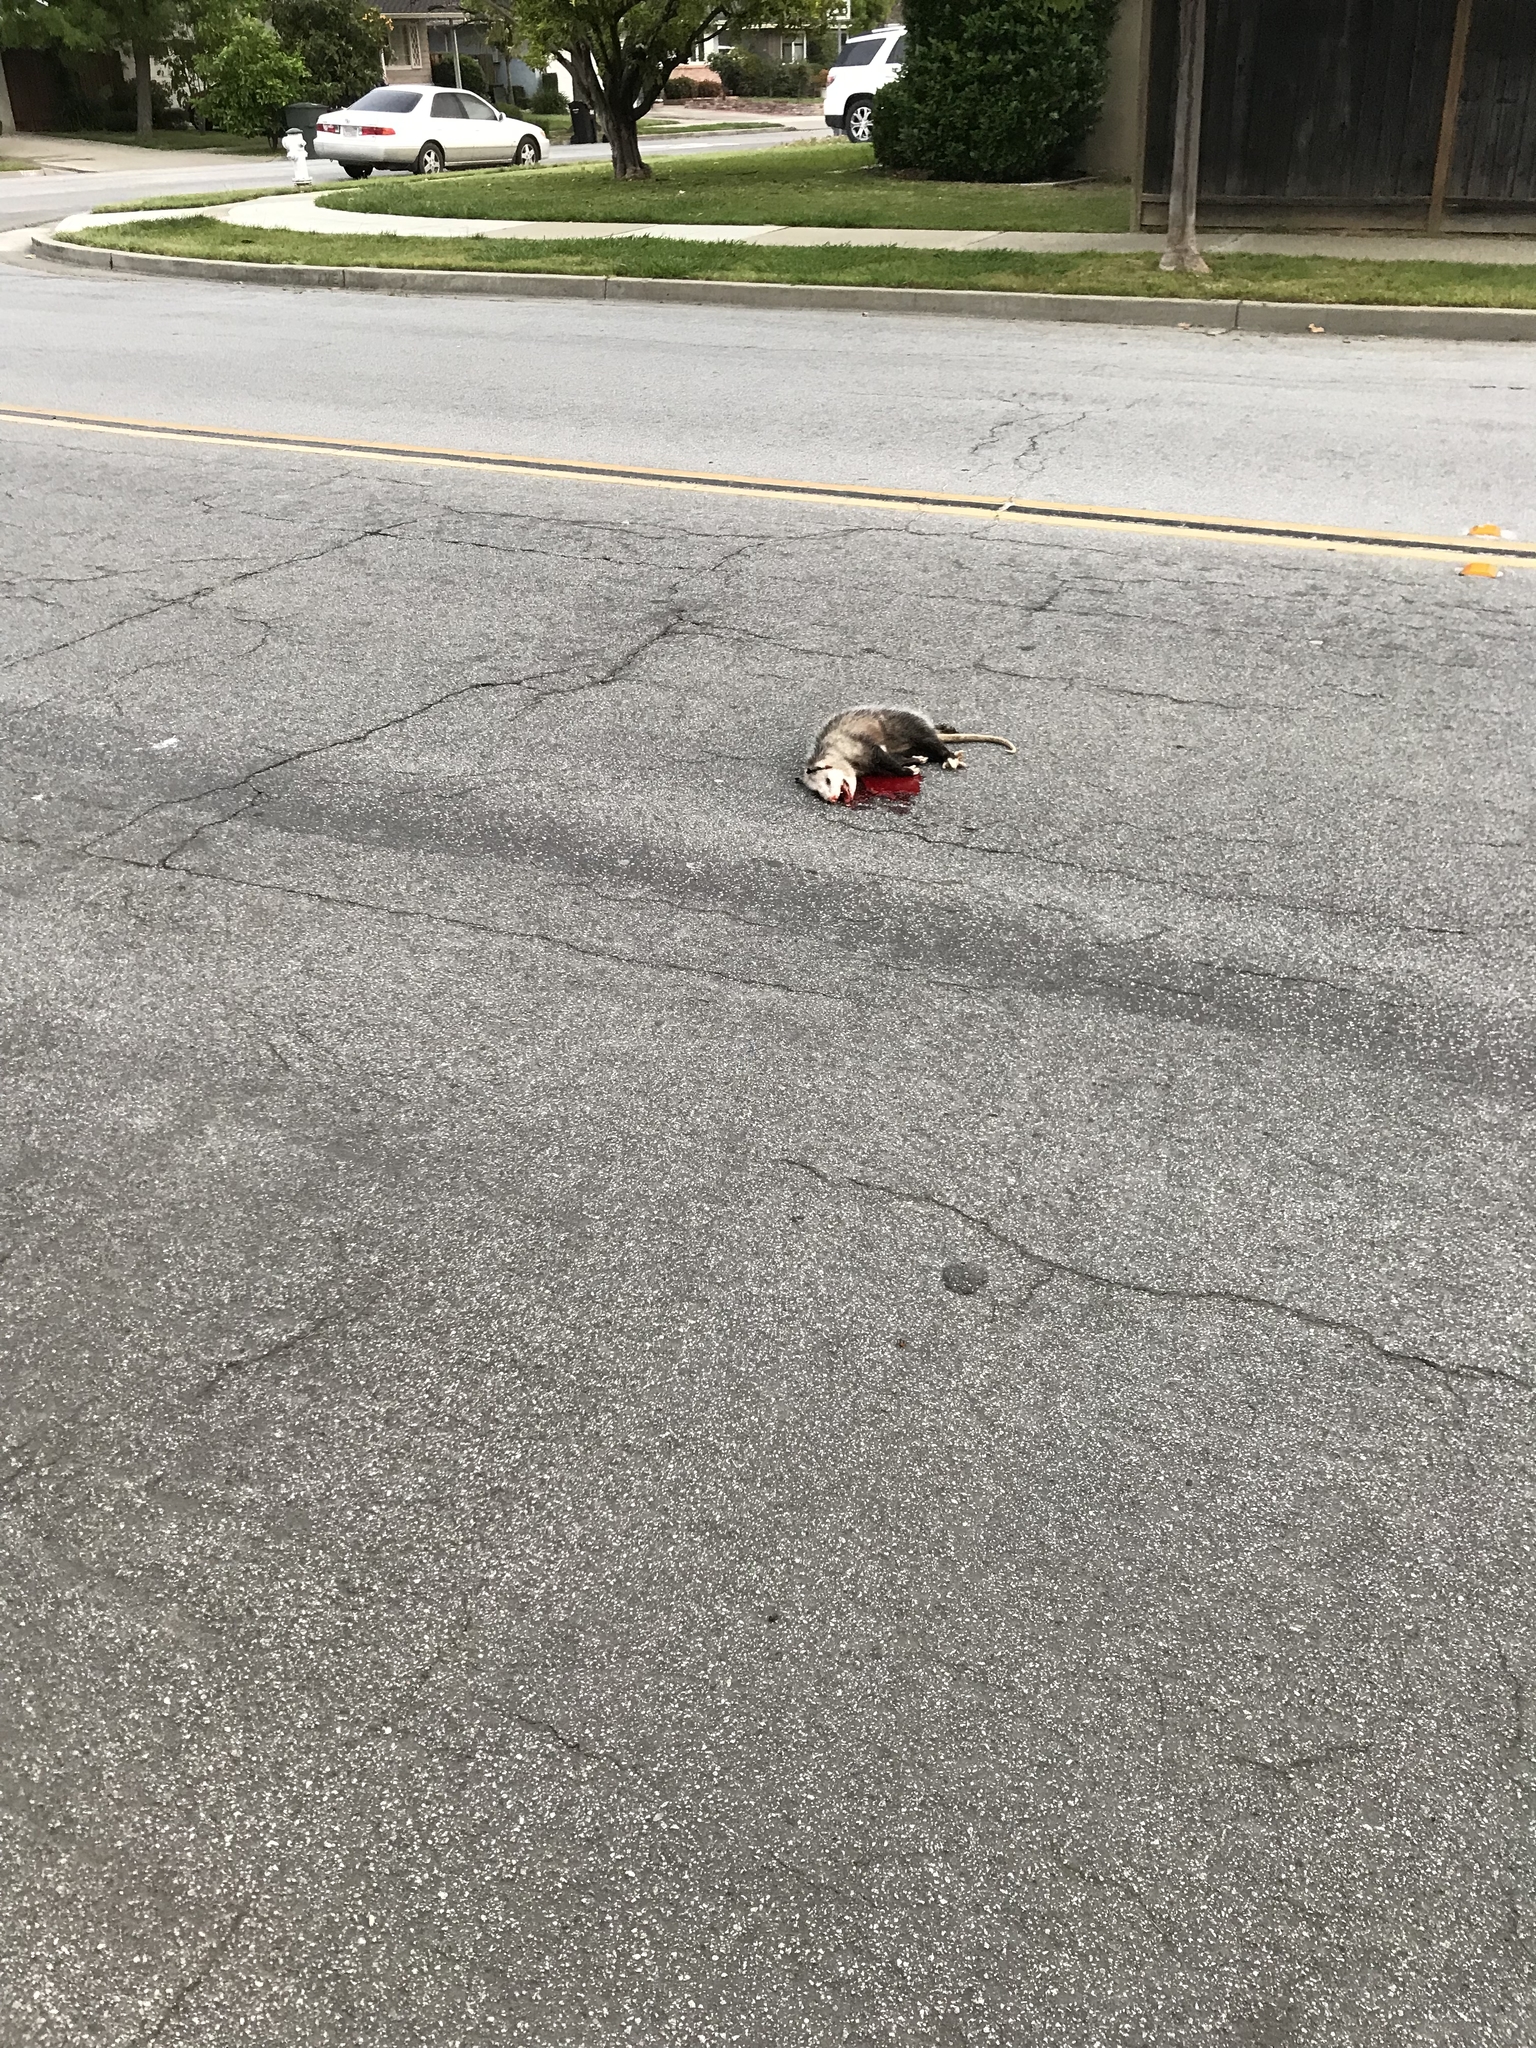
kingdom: Animalia
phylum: Chordata
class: Mammalia
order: Didelphimorphia
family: Didelphidae
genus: Didelphis
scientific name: Didelphis virginiana
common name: Virginia opossum
